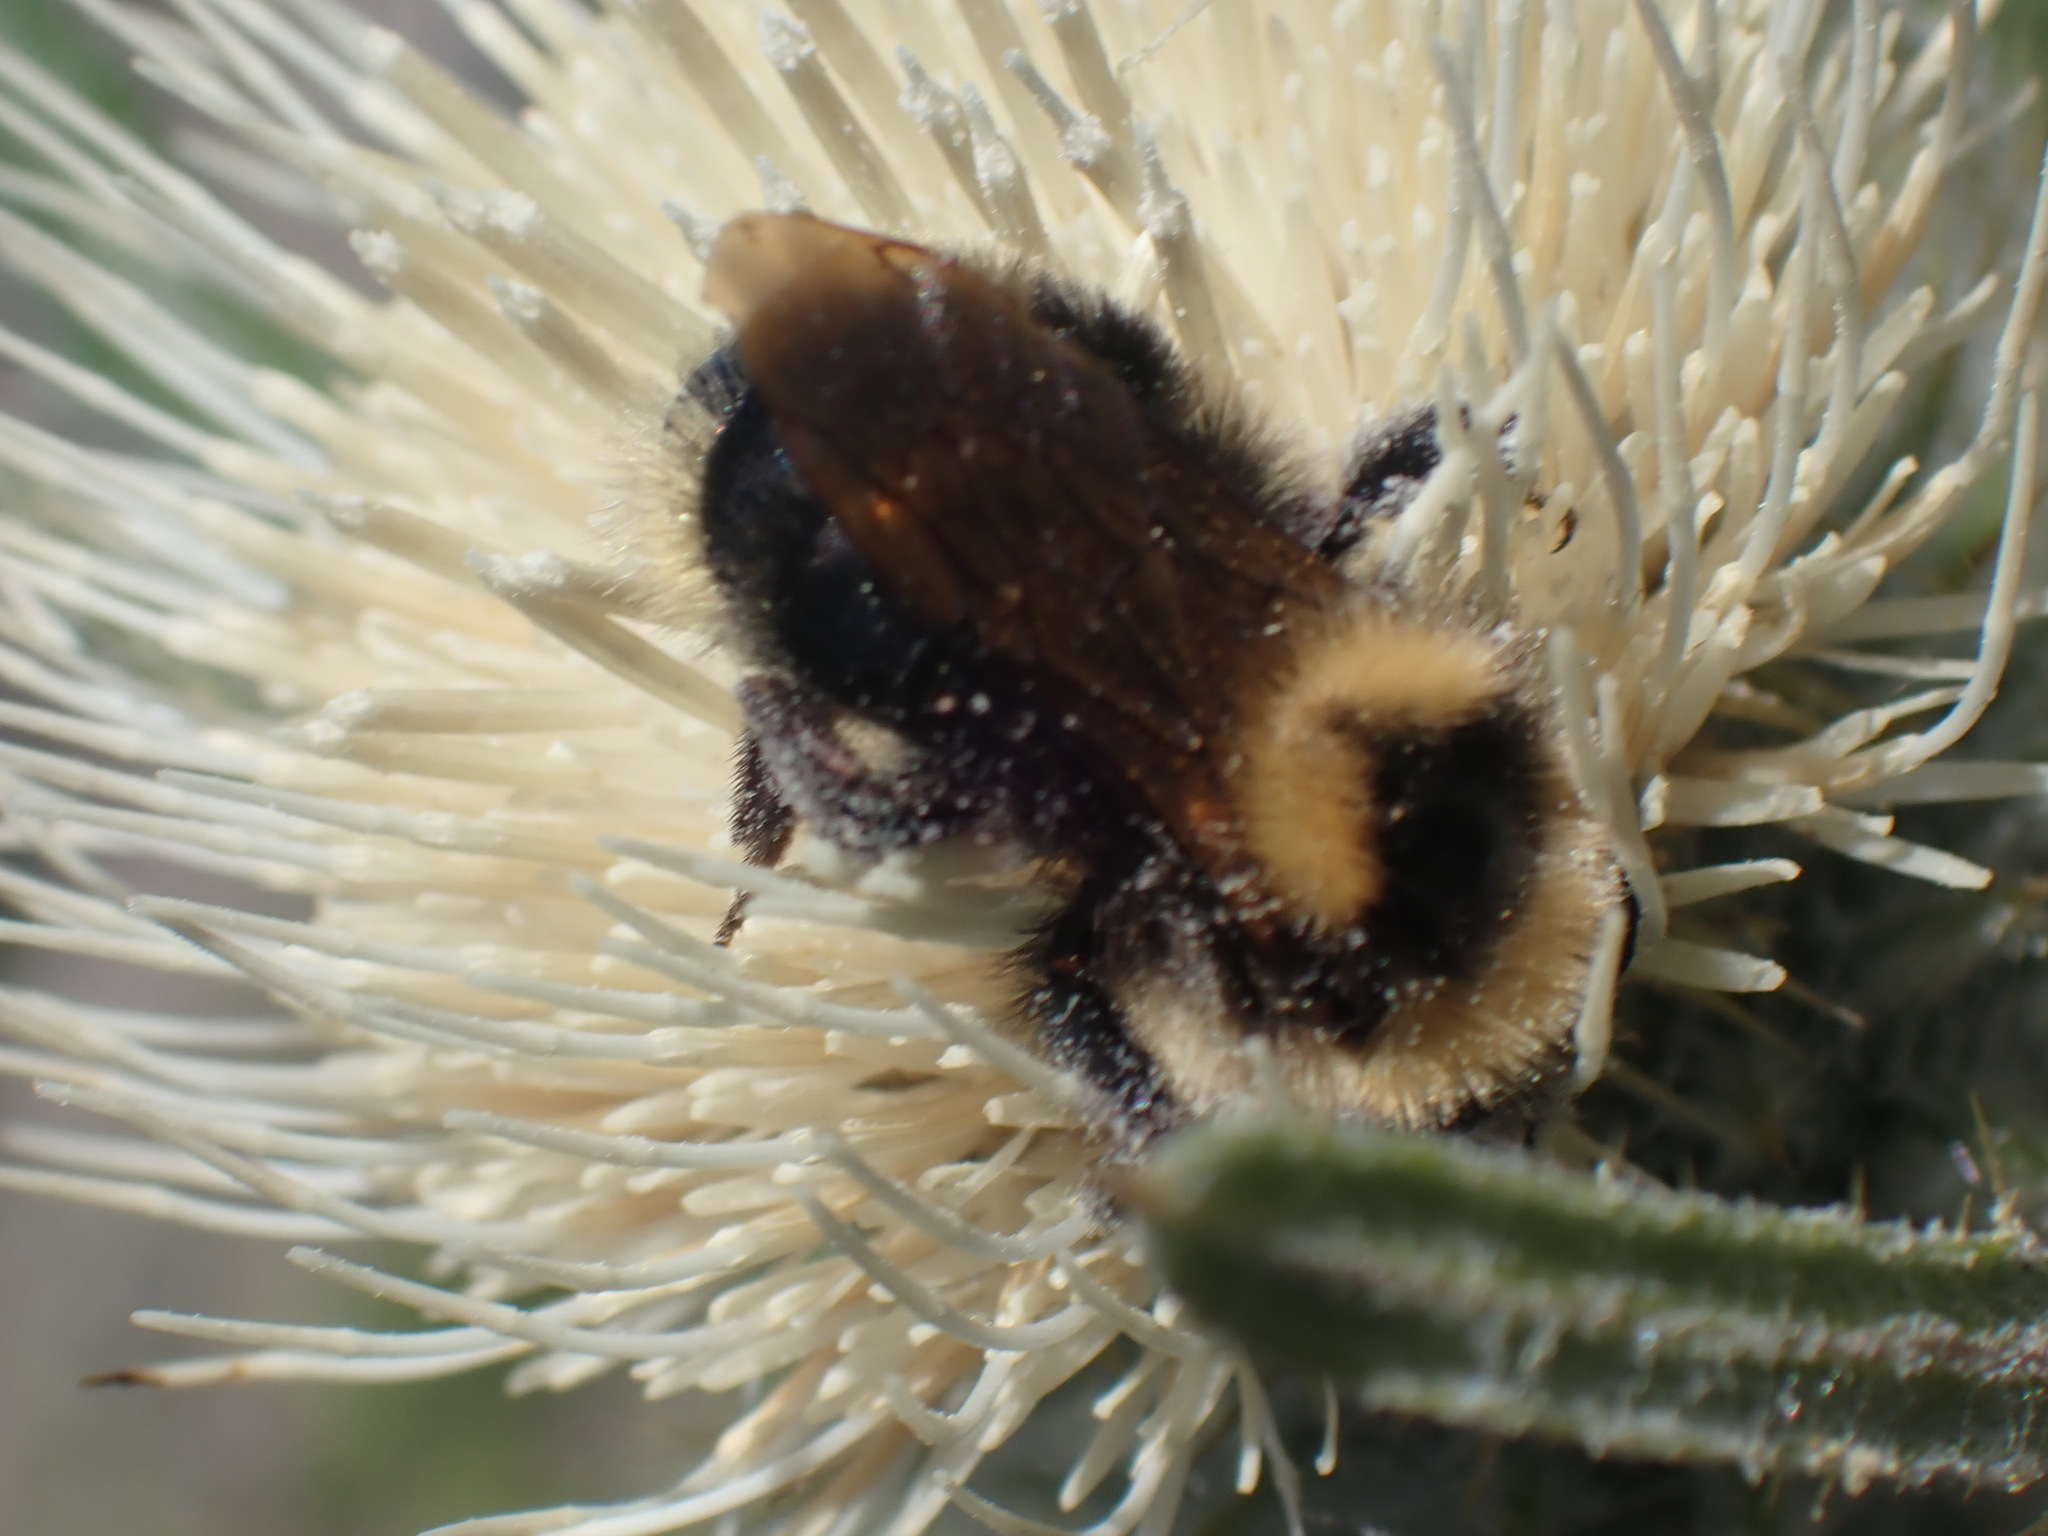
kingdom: Animalia
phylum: Arthropoda
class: Insecta
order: Hymenoptera
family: Apidae
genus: Bombus
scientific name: Bombus insularis
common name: Indiscriminate cuckoo bumble bee
